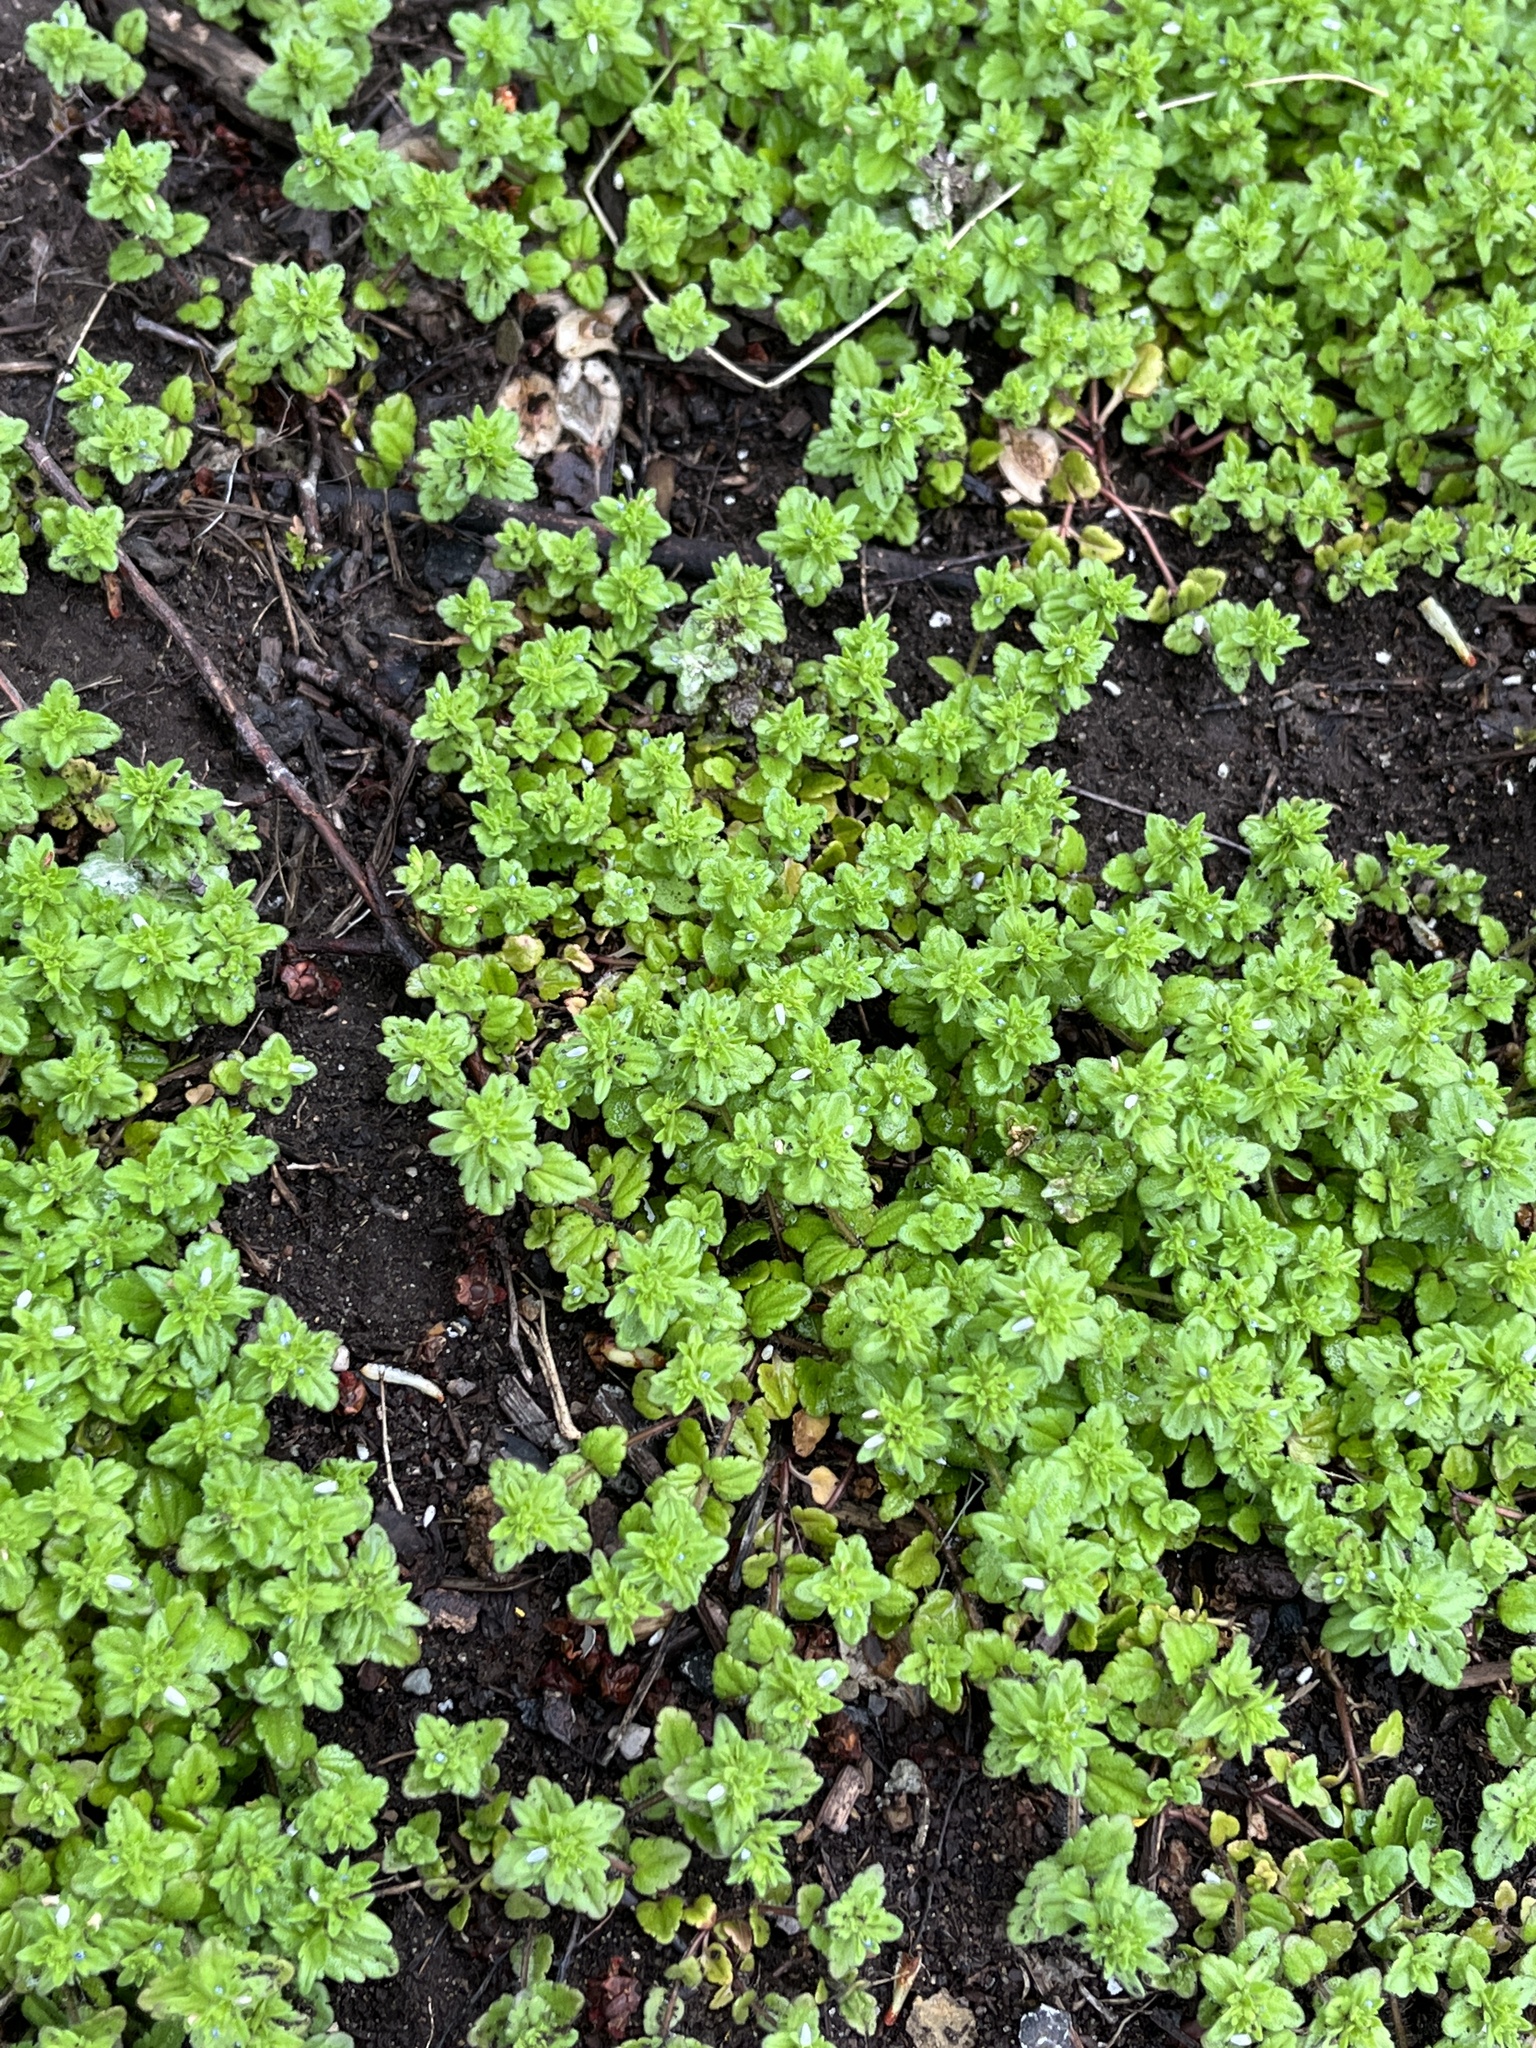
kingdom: Plantae
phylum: Tracheophyta
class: Magnoliopsida
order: Lamiales
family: Plantaginaceae
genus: Veronica
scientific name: Veronica arvensis
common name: Corn speedwell
